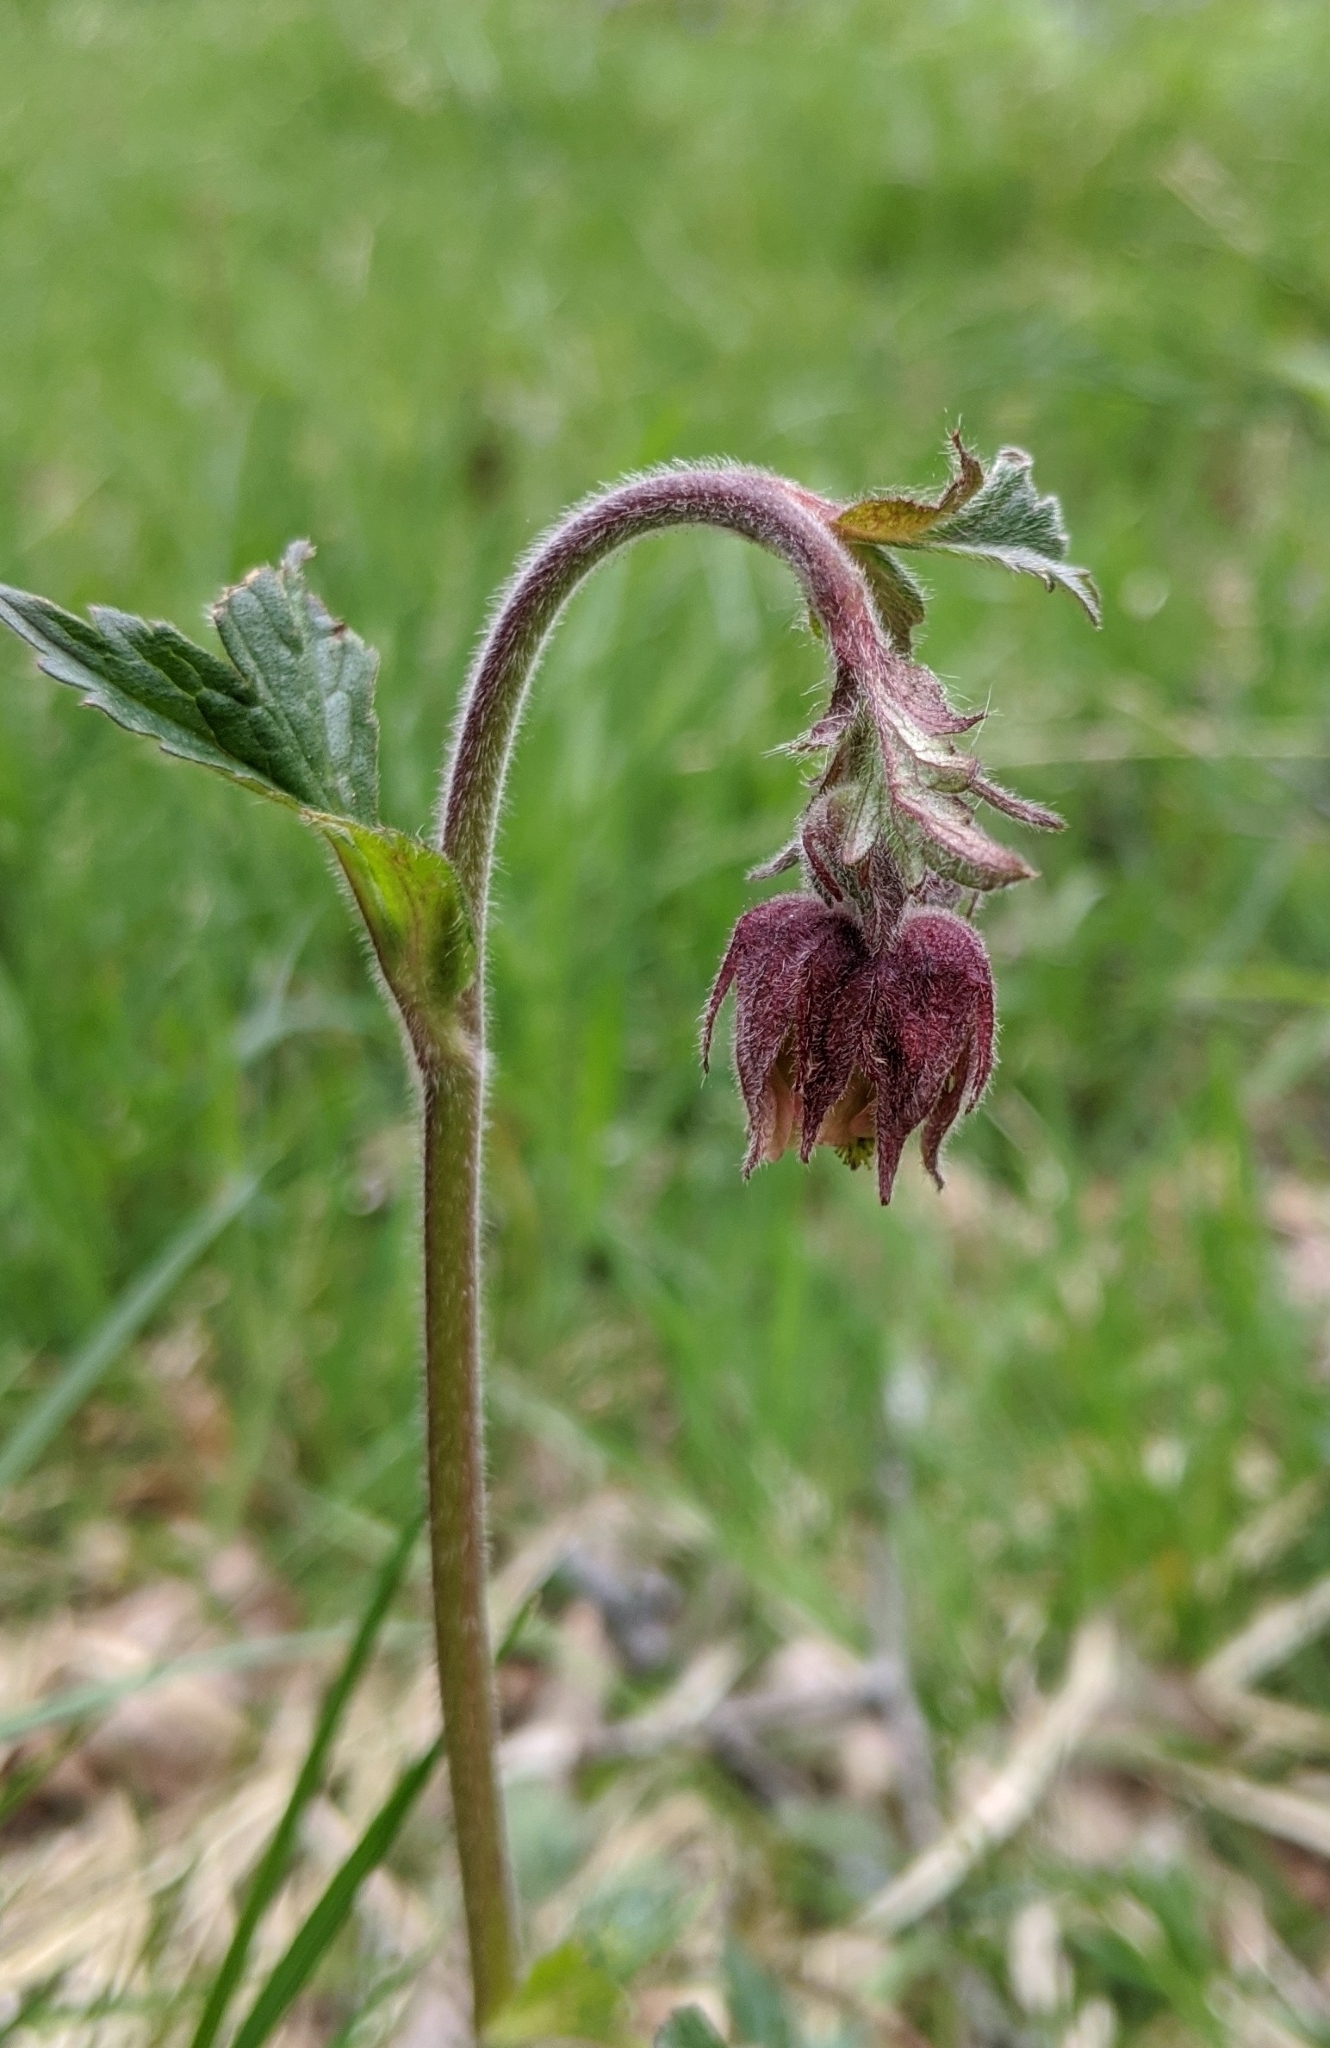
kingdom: Plantae
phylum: Tracheophyta
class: Magnoliopsida
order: Rosales
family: Rosaceae
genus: Geum
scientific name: Geum rivale
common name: Water avens
